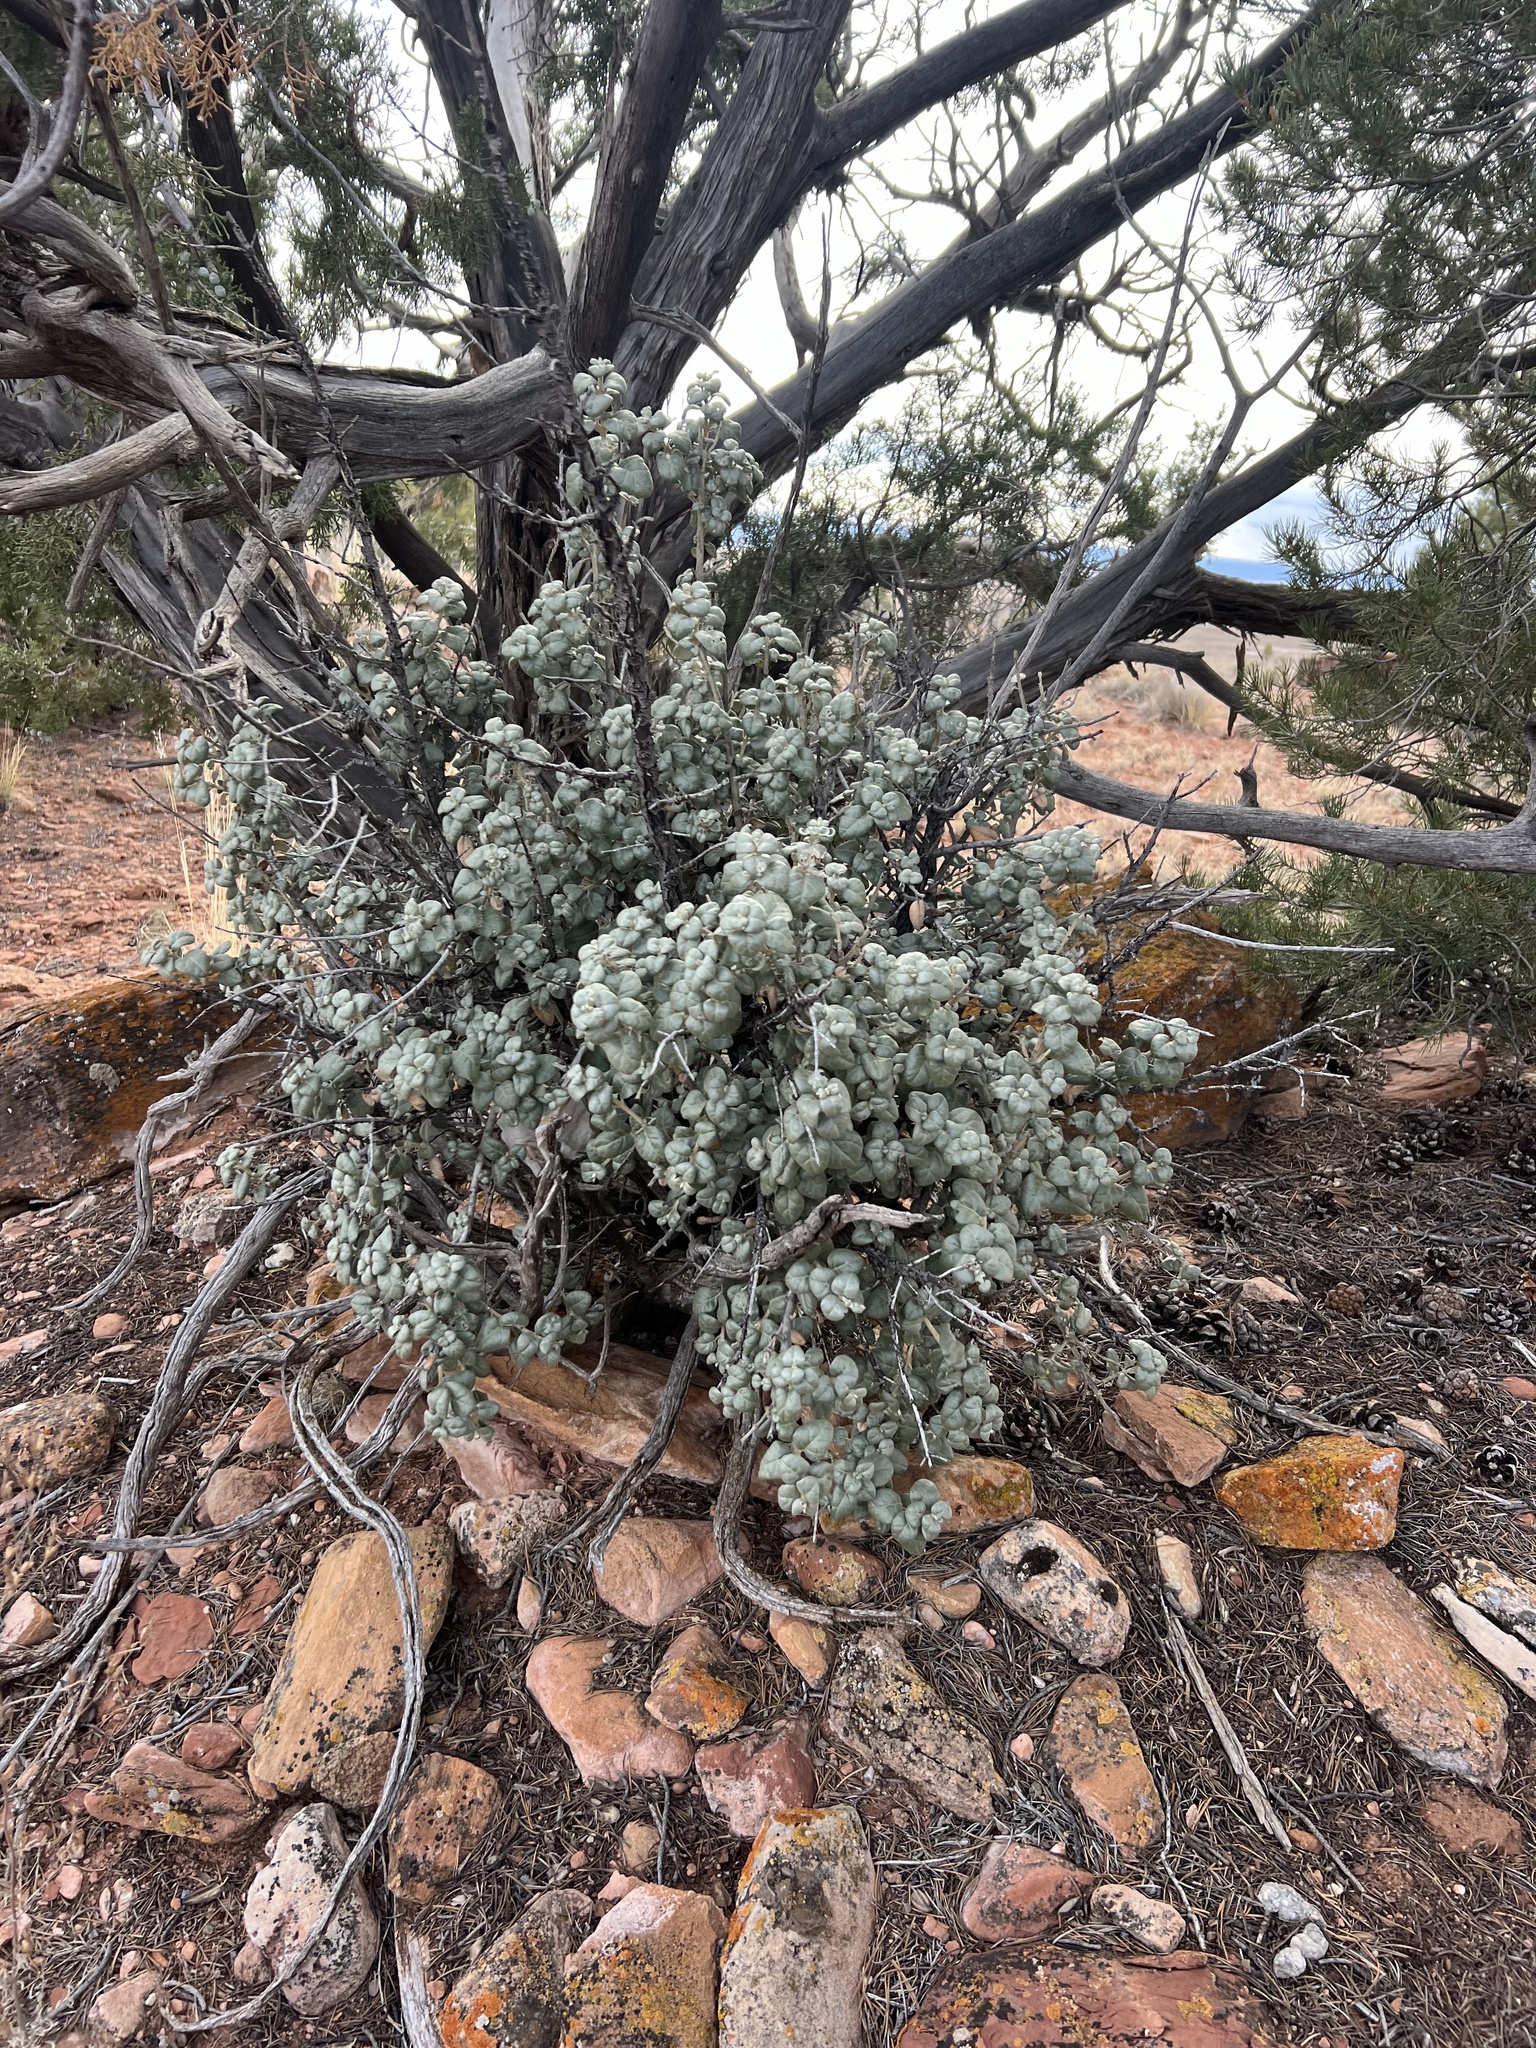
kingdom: Plantae
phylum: Tracheophyta
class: Magnoliopsida
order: Rosales
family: Elaeagnaceae
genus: Shepherdia
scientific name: Shepherdia rotundifolia
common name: Silverscale
